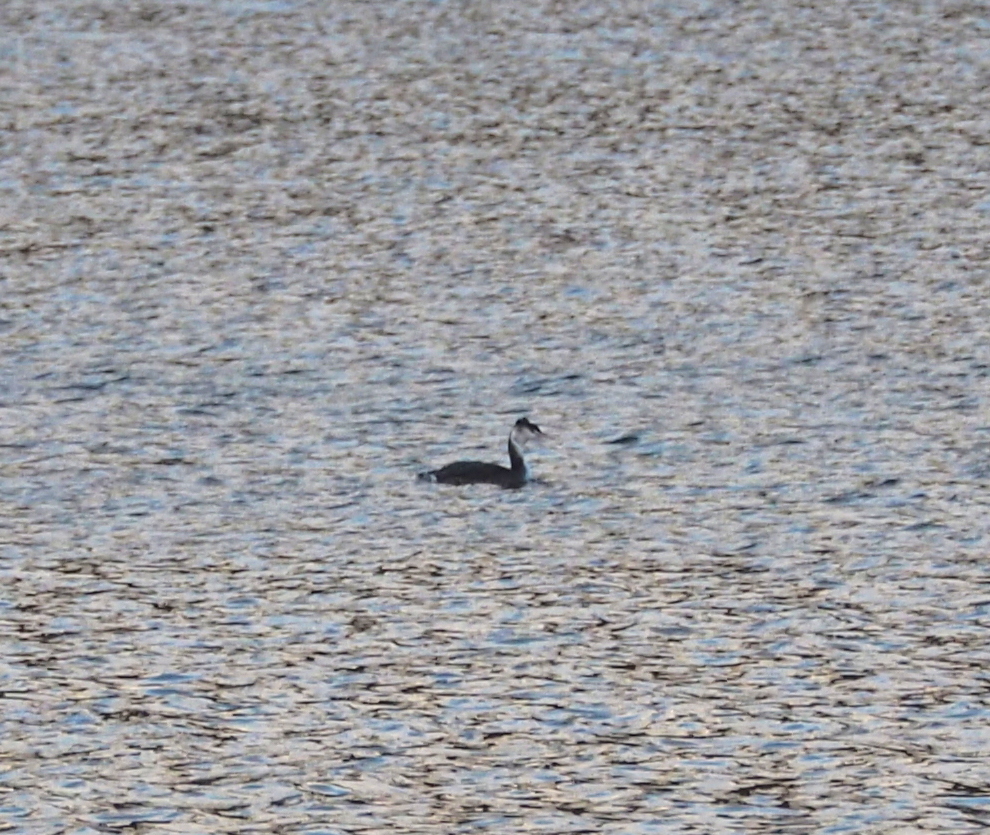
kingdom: Animalia
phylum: Chordata
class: Aves
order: Podicipediformes
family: Podicipedidae
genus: Podiceps
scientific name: Podiceps cristatus
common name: Great crested grebe
